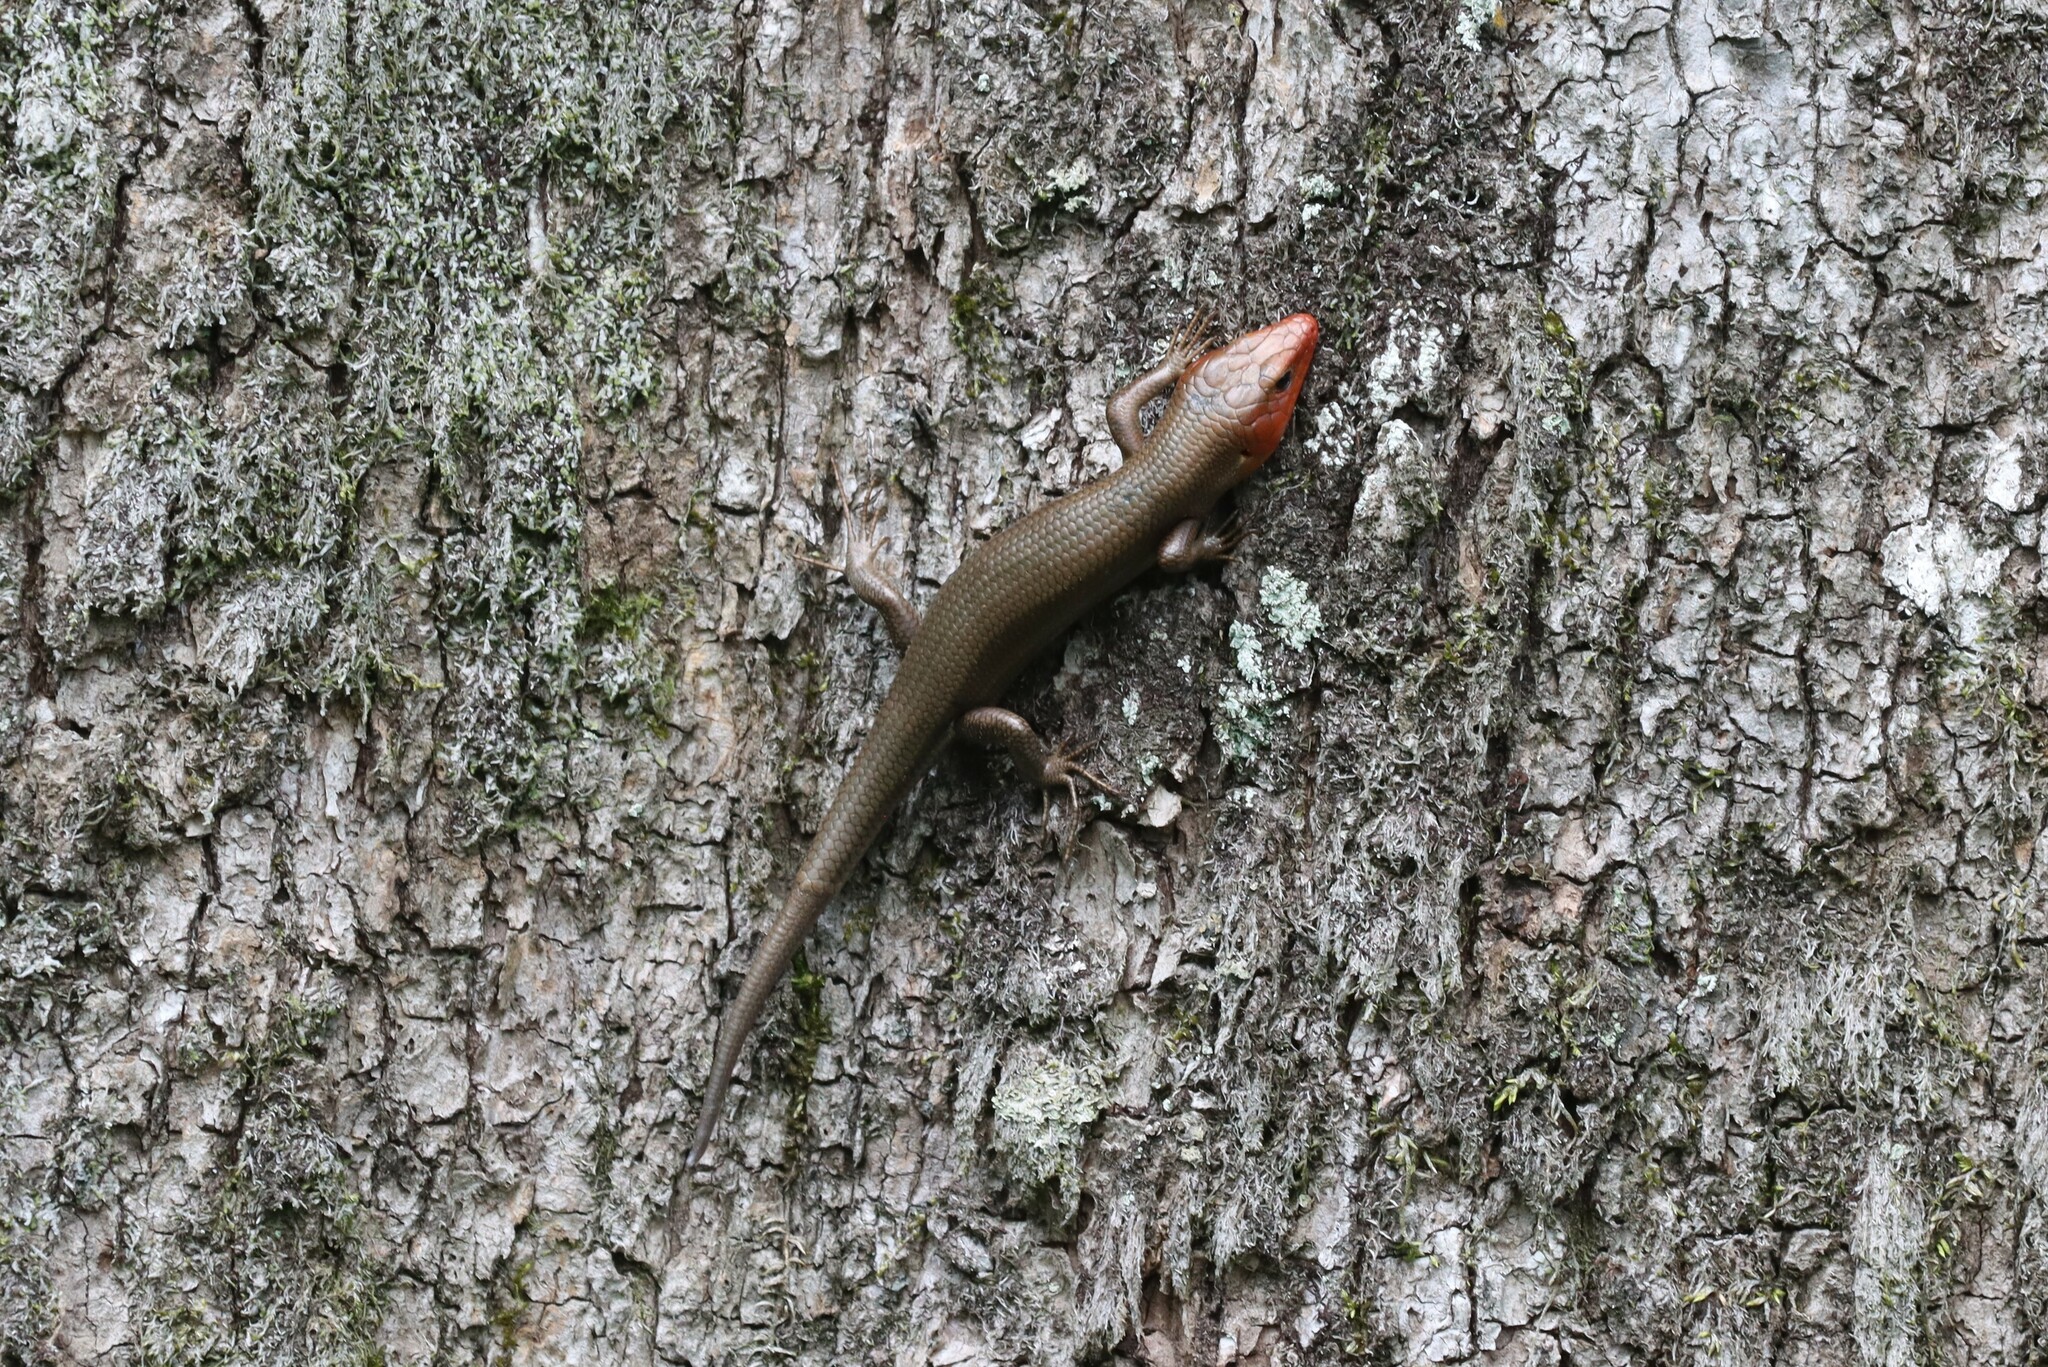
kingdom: Animalia
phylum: Chordata
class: Squamata
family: Scincidae
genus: Plestiodon
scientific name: Plestiodon laticeps
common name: Broadhead skink
